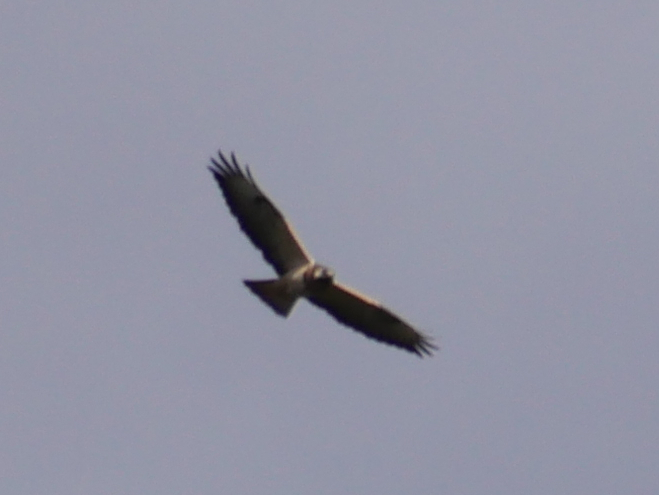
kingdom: Animalia
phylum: Chordata
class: Aves
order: Accipitriformes
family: Accipitridae
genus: Buteo
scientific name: Buteo buteo
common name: Common buzzard
